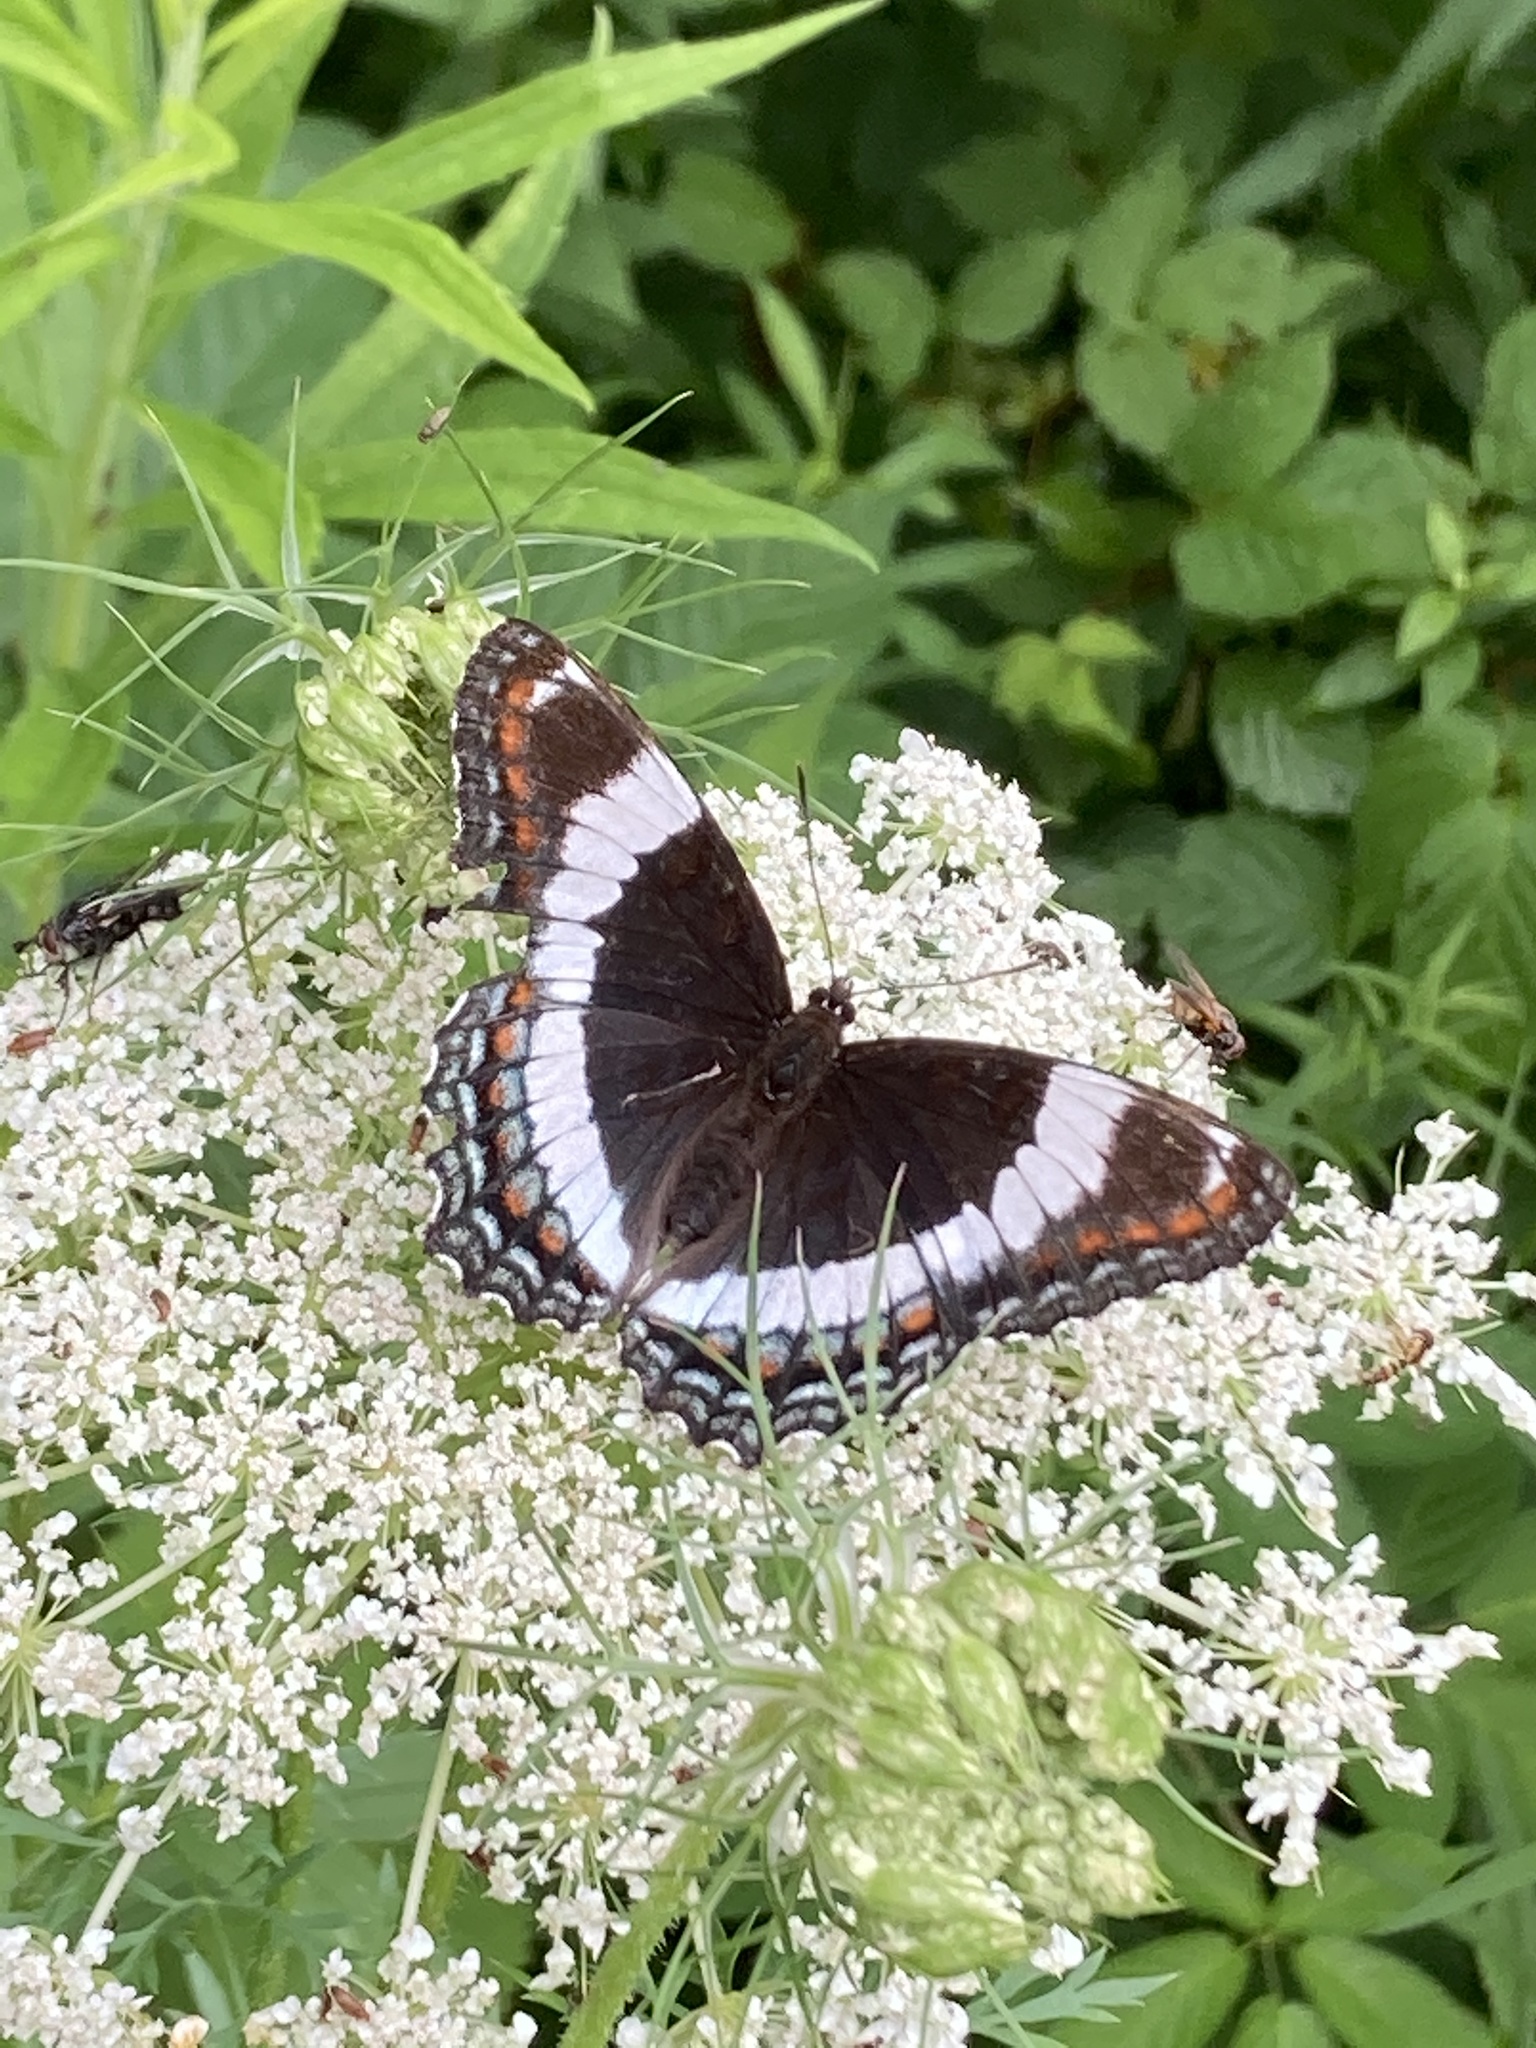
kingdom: Animalia
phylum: Arthropoda
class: Insecta
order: Lepidoptera
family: Nymphalidae
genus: Limenitis
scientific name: Limenitis arthemis
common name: Red-spotted admiral
